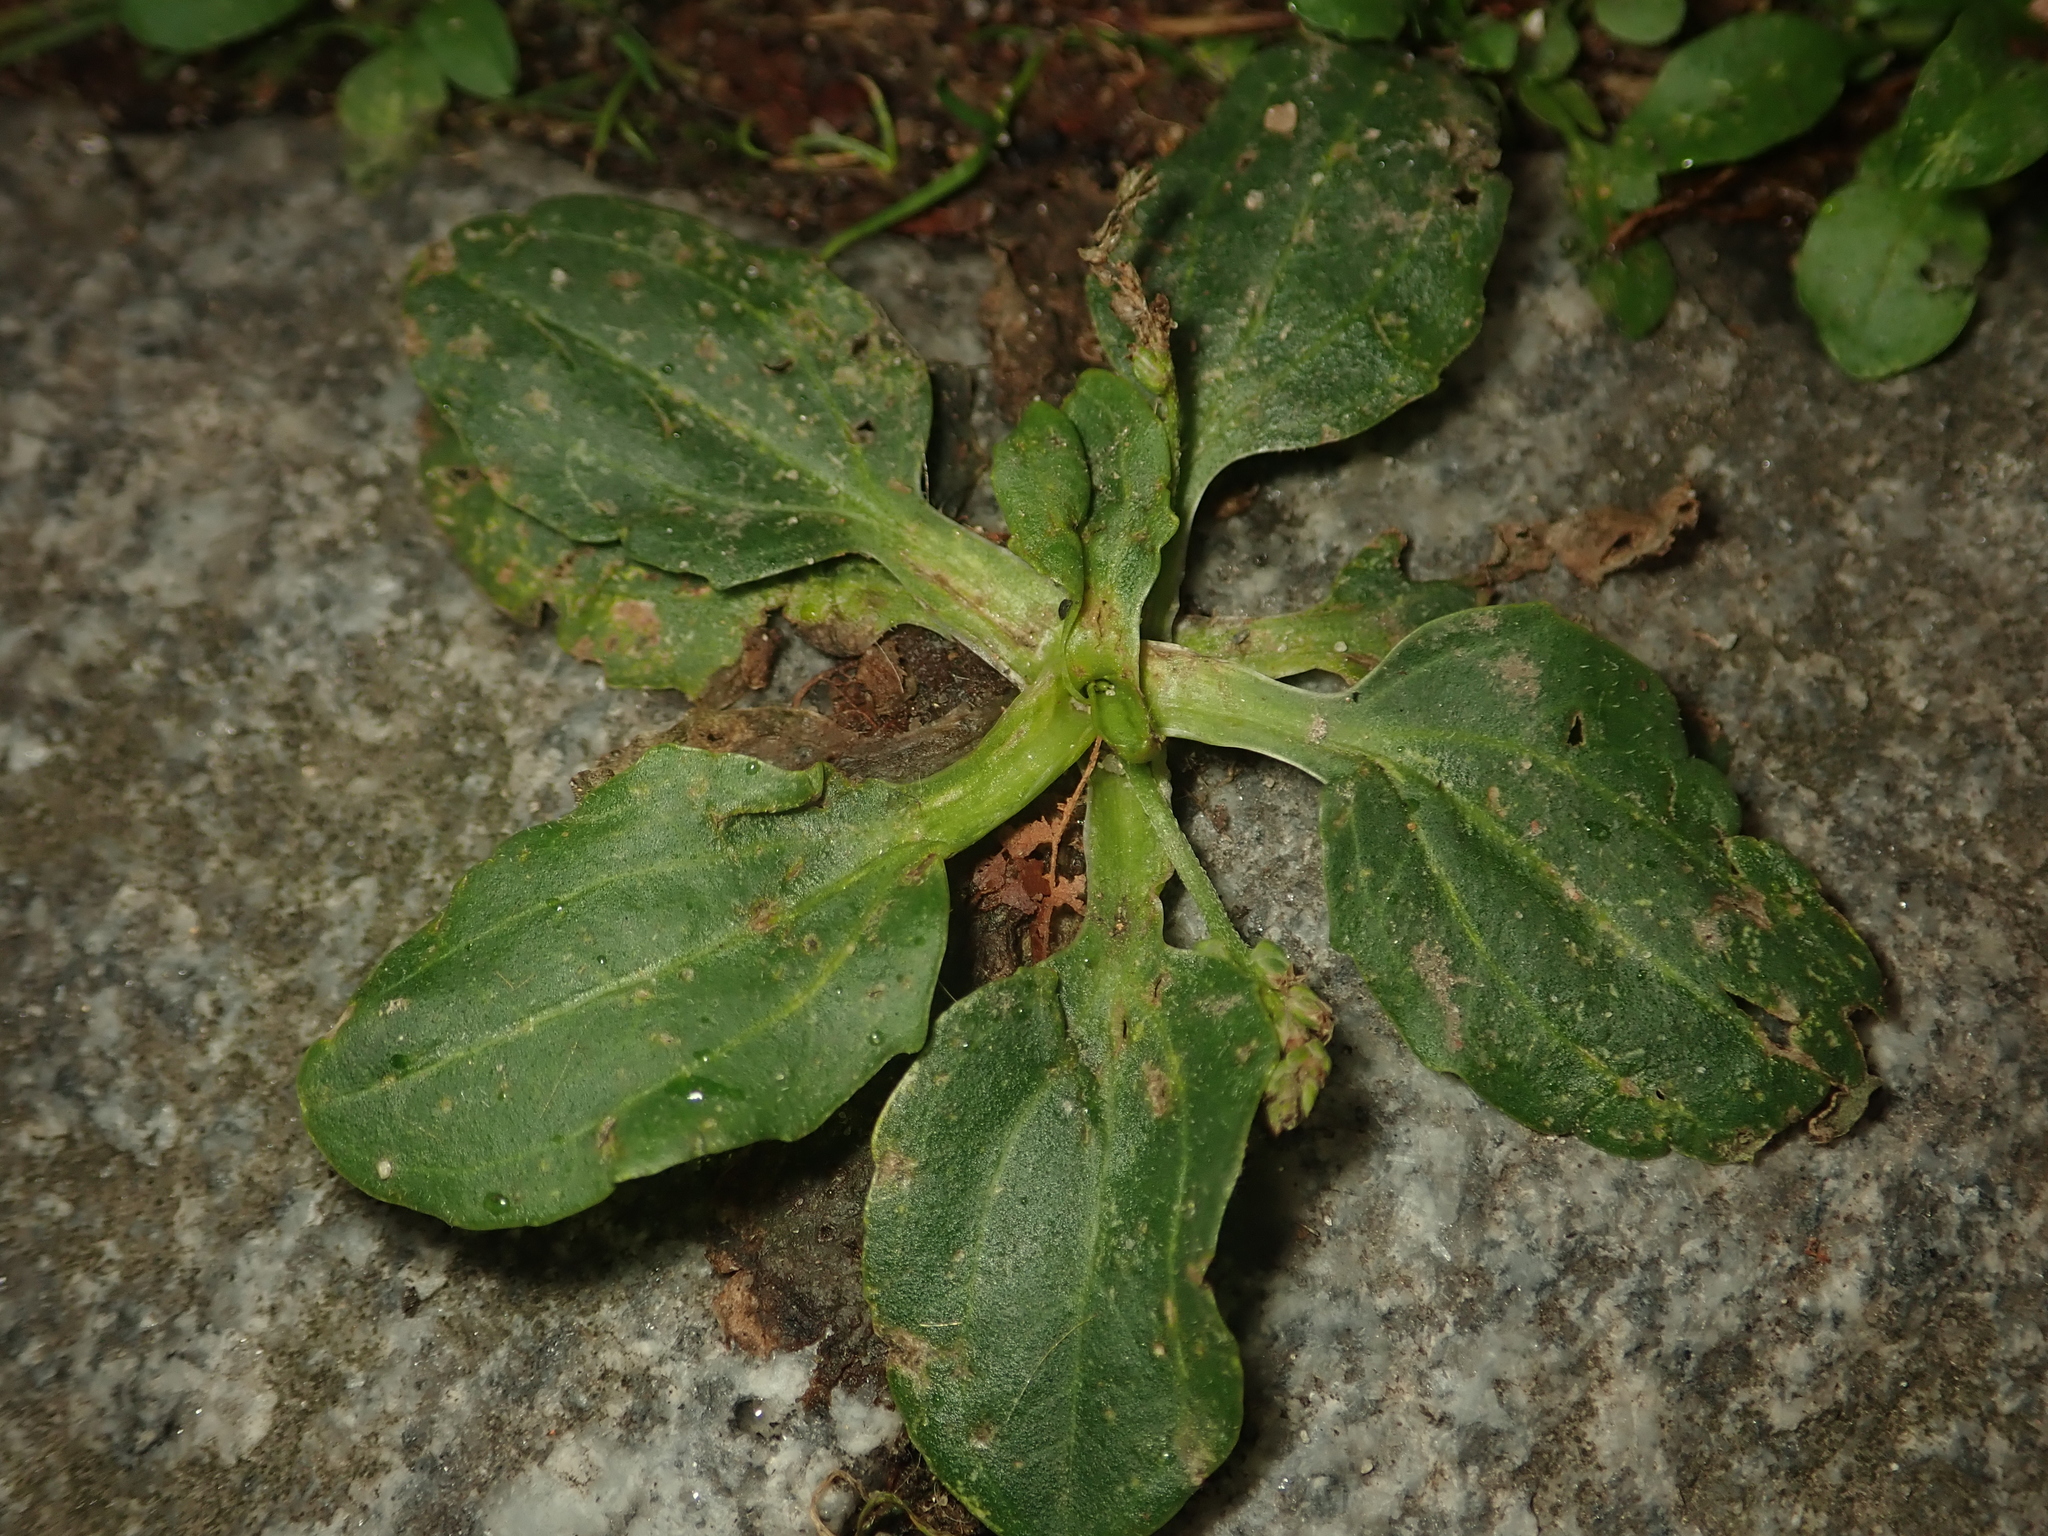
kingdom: Plantae
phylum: Tracheophyta
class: Magnoliopsida
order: Lamiales
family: Plantaginaceae
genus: Plantago
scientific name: Plantago major
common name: Common plantain
